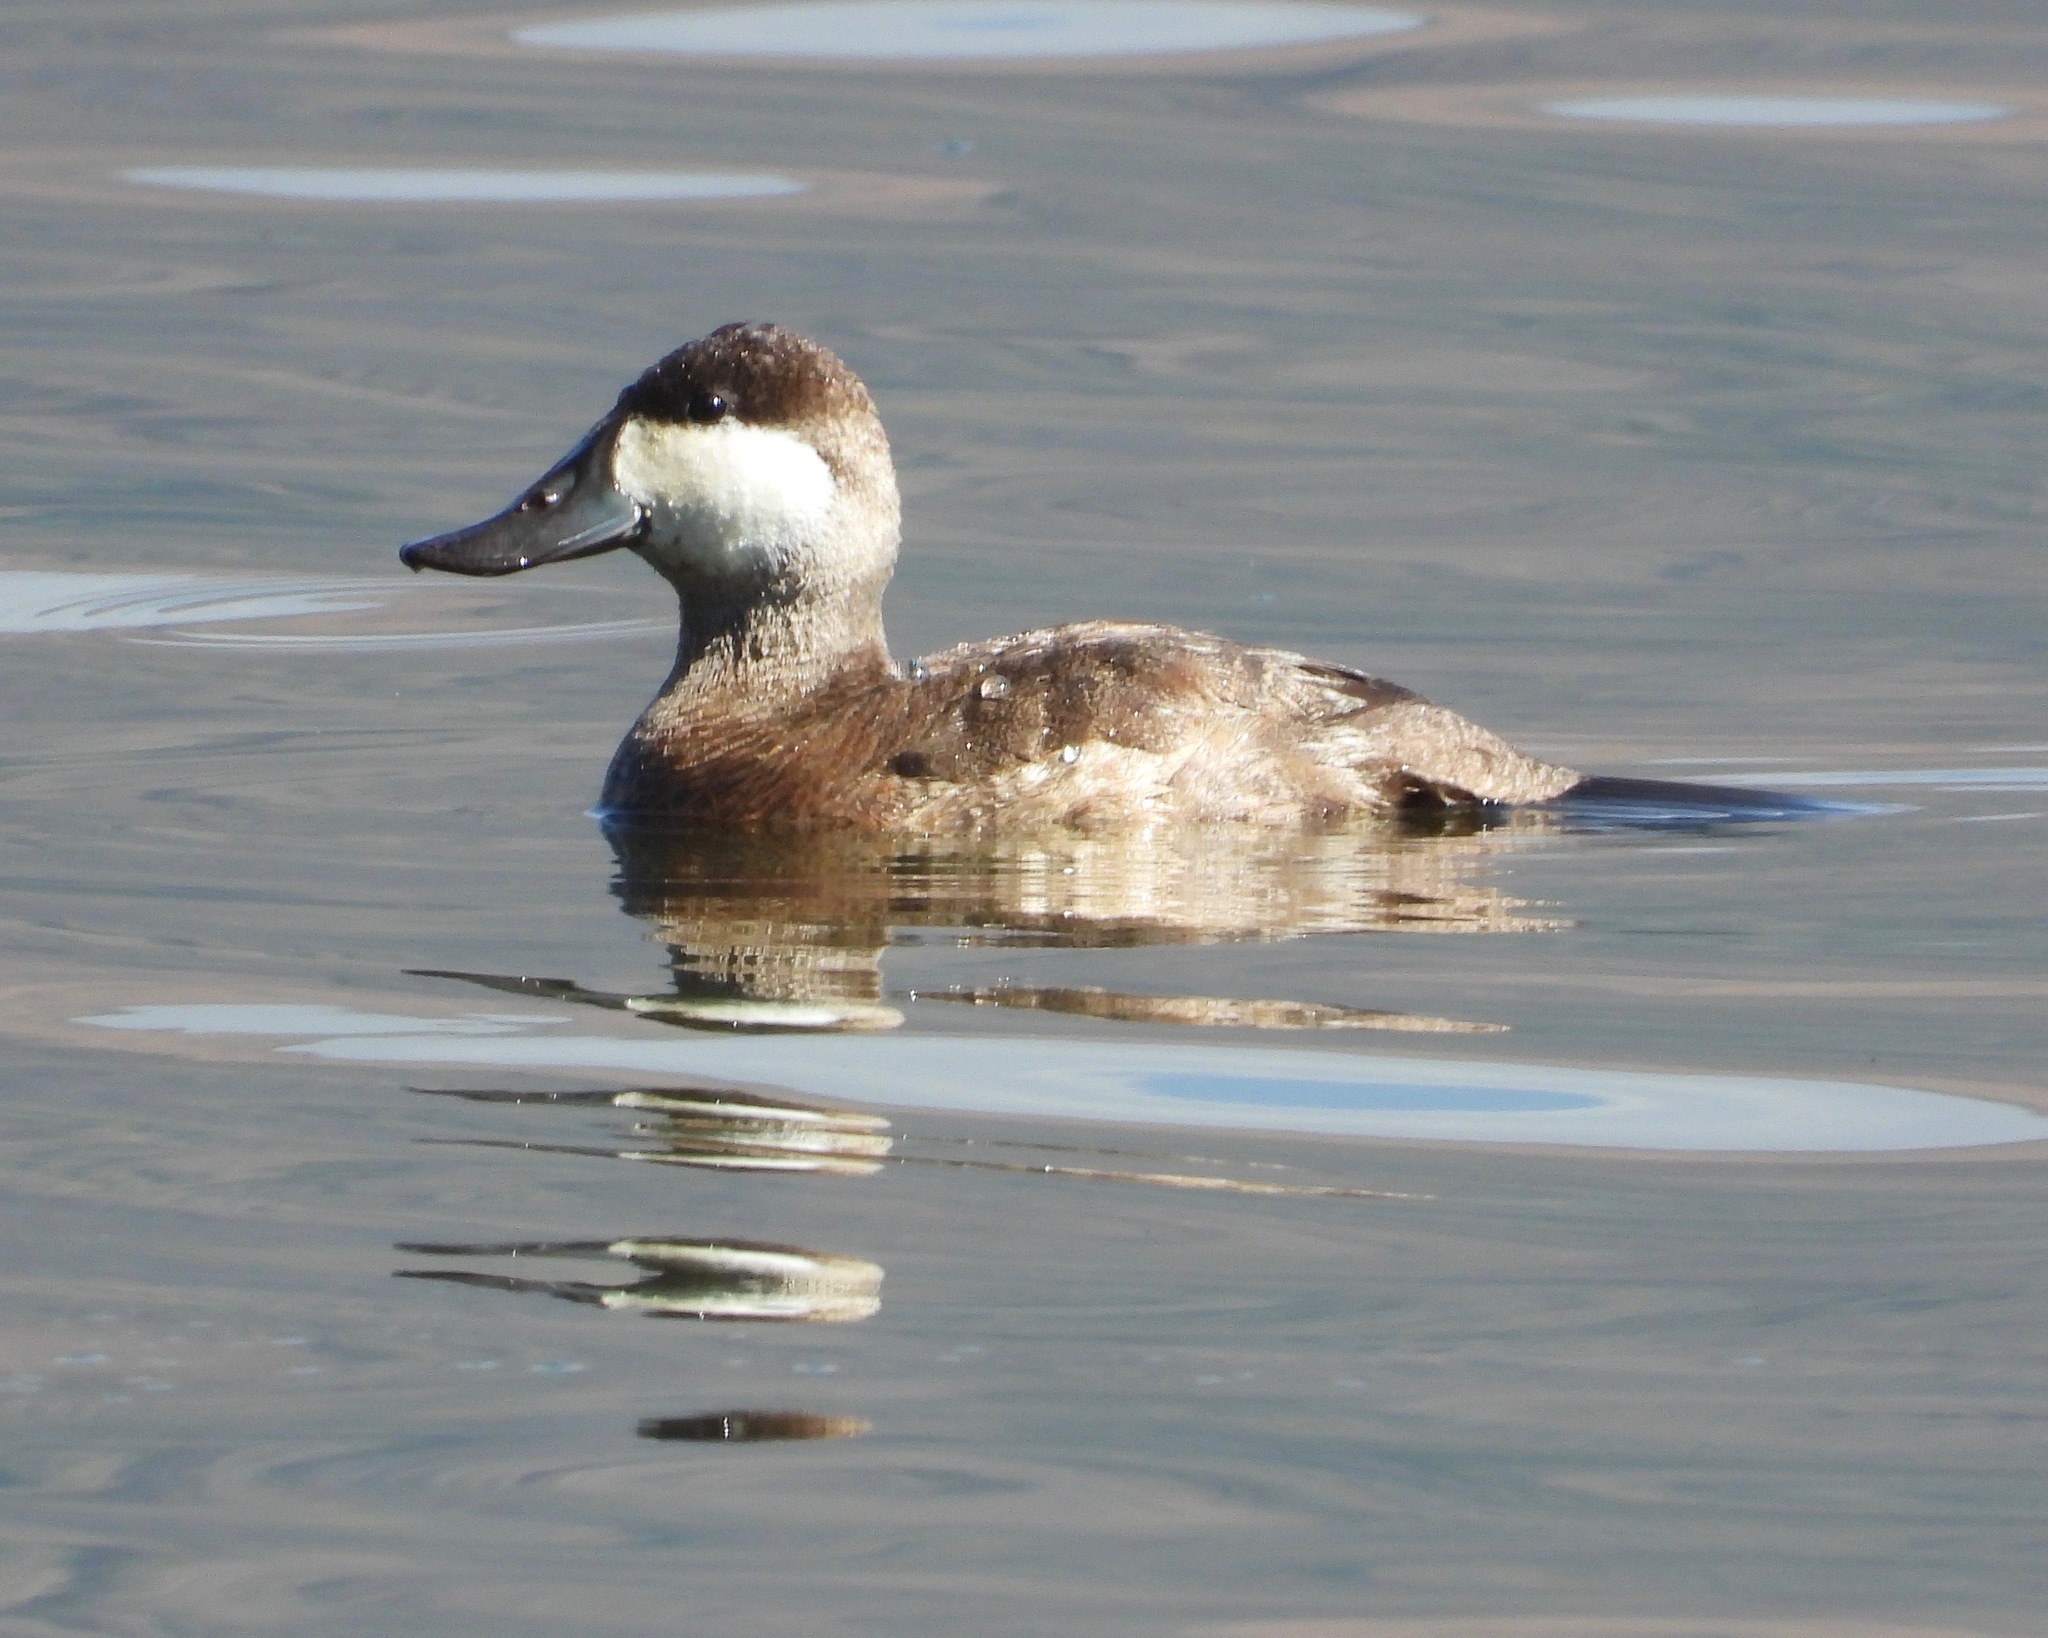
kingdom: Animalia
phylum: Chordata
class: Aves
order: Anseriformes
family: Anatidae
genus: Oxyura
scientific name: Oxyura jamaicensis
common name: Ruddy duck
